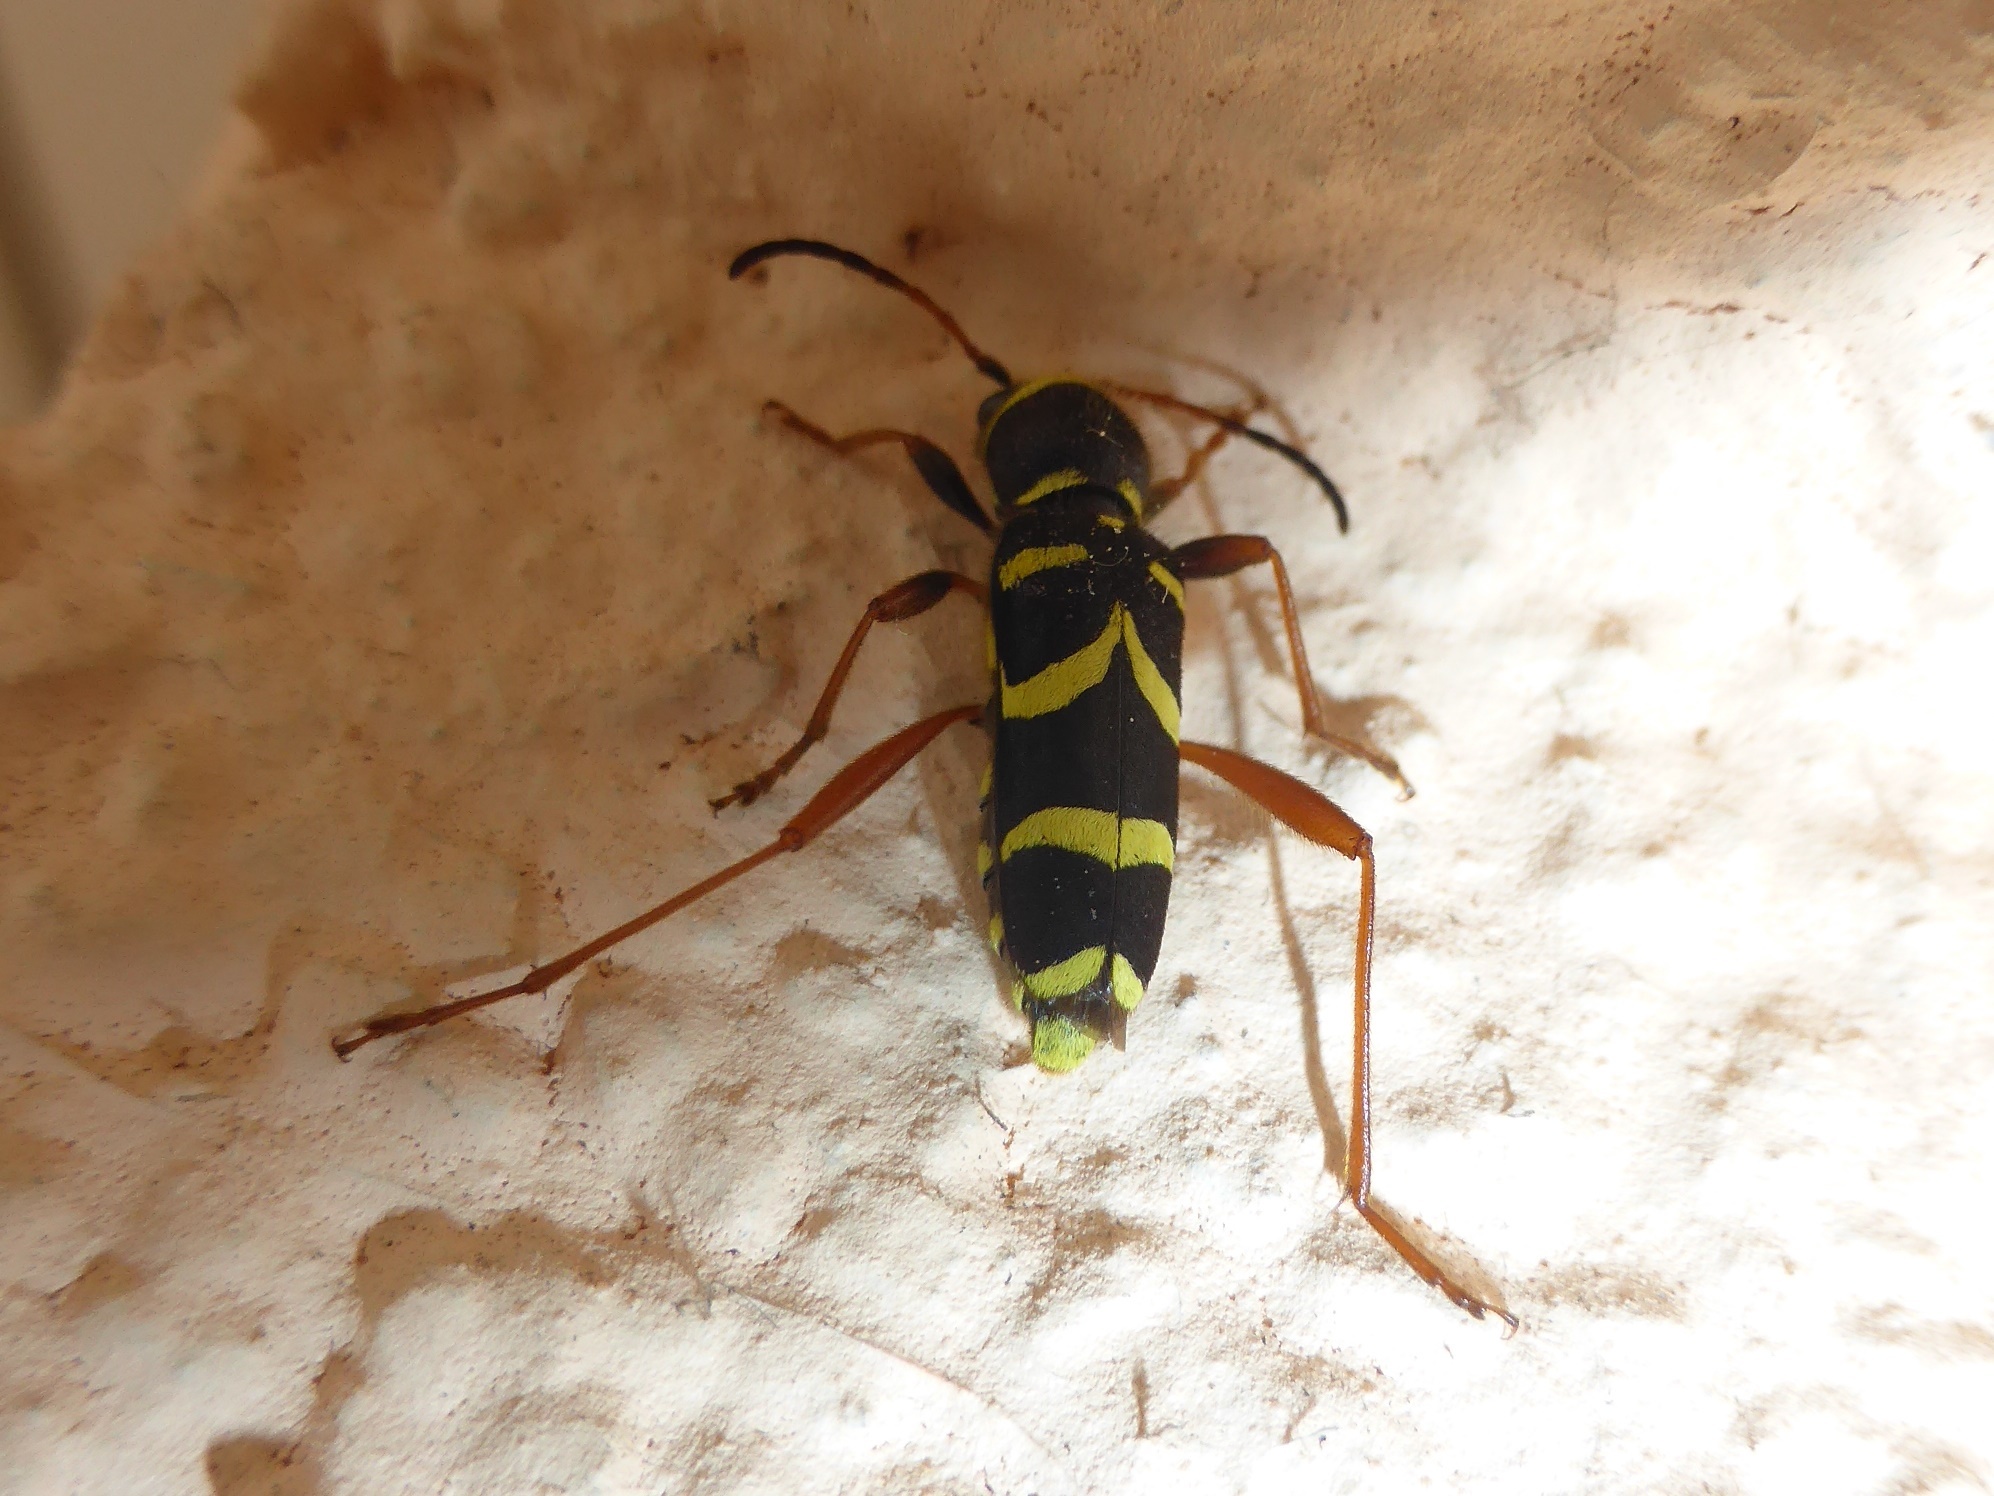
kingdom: Animalia
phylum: Arthropoda
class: Insecta
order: Coleoptera
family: Cerambycidae
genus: Clytus
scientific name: Clytus arietis
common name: Wasp beetle
